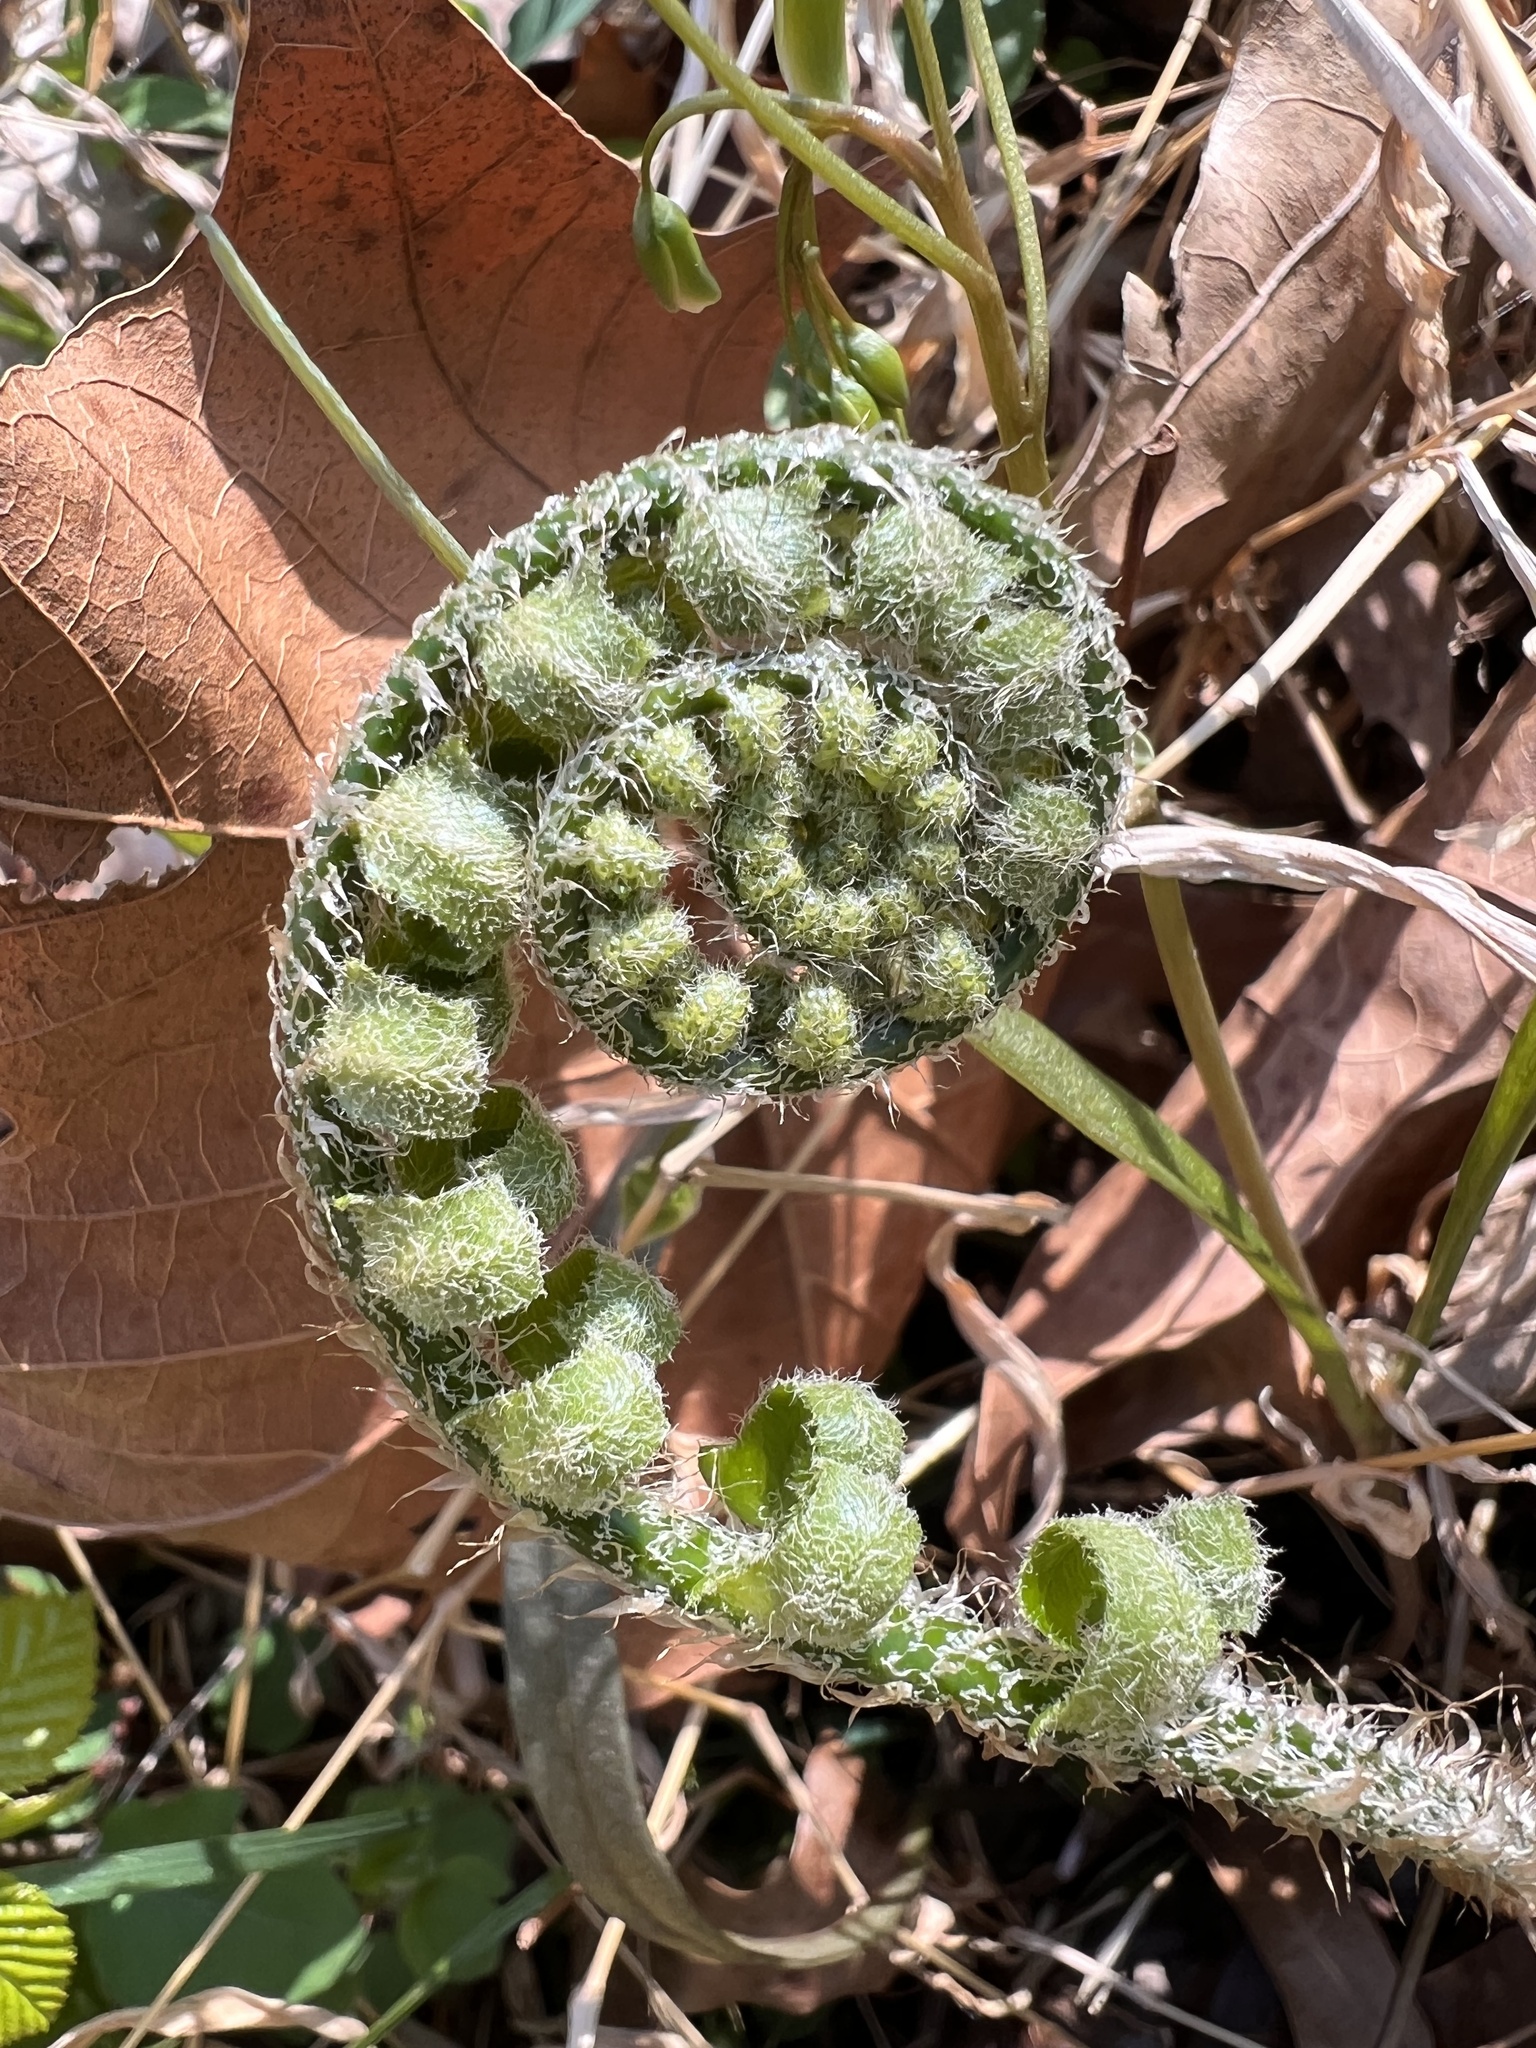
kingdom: Plantae
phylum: Tracheophyta
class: Polypodiopsida
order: Polypodiales
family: Dryopteridaceae
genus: Polystichum
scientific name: Polystichum acrostichoides
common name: Christmas fern
